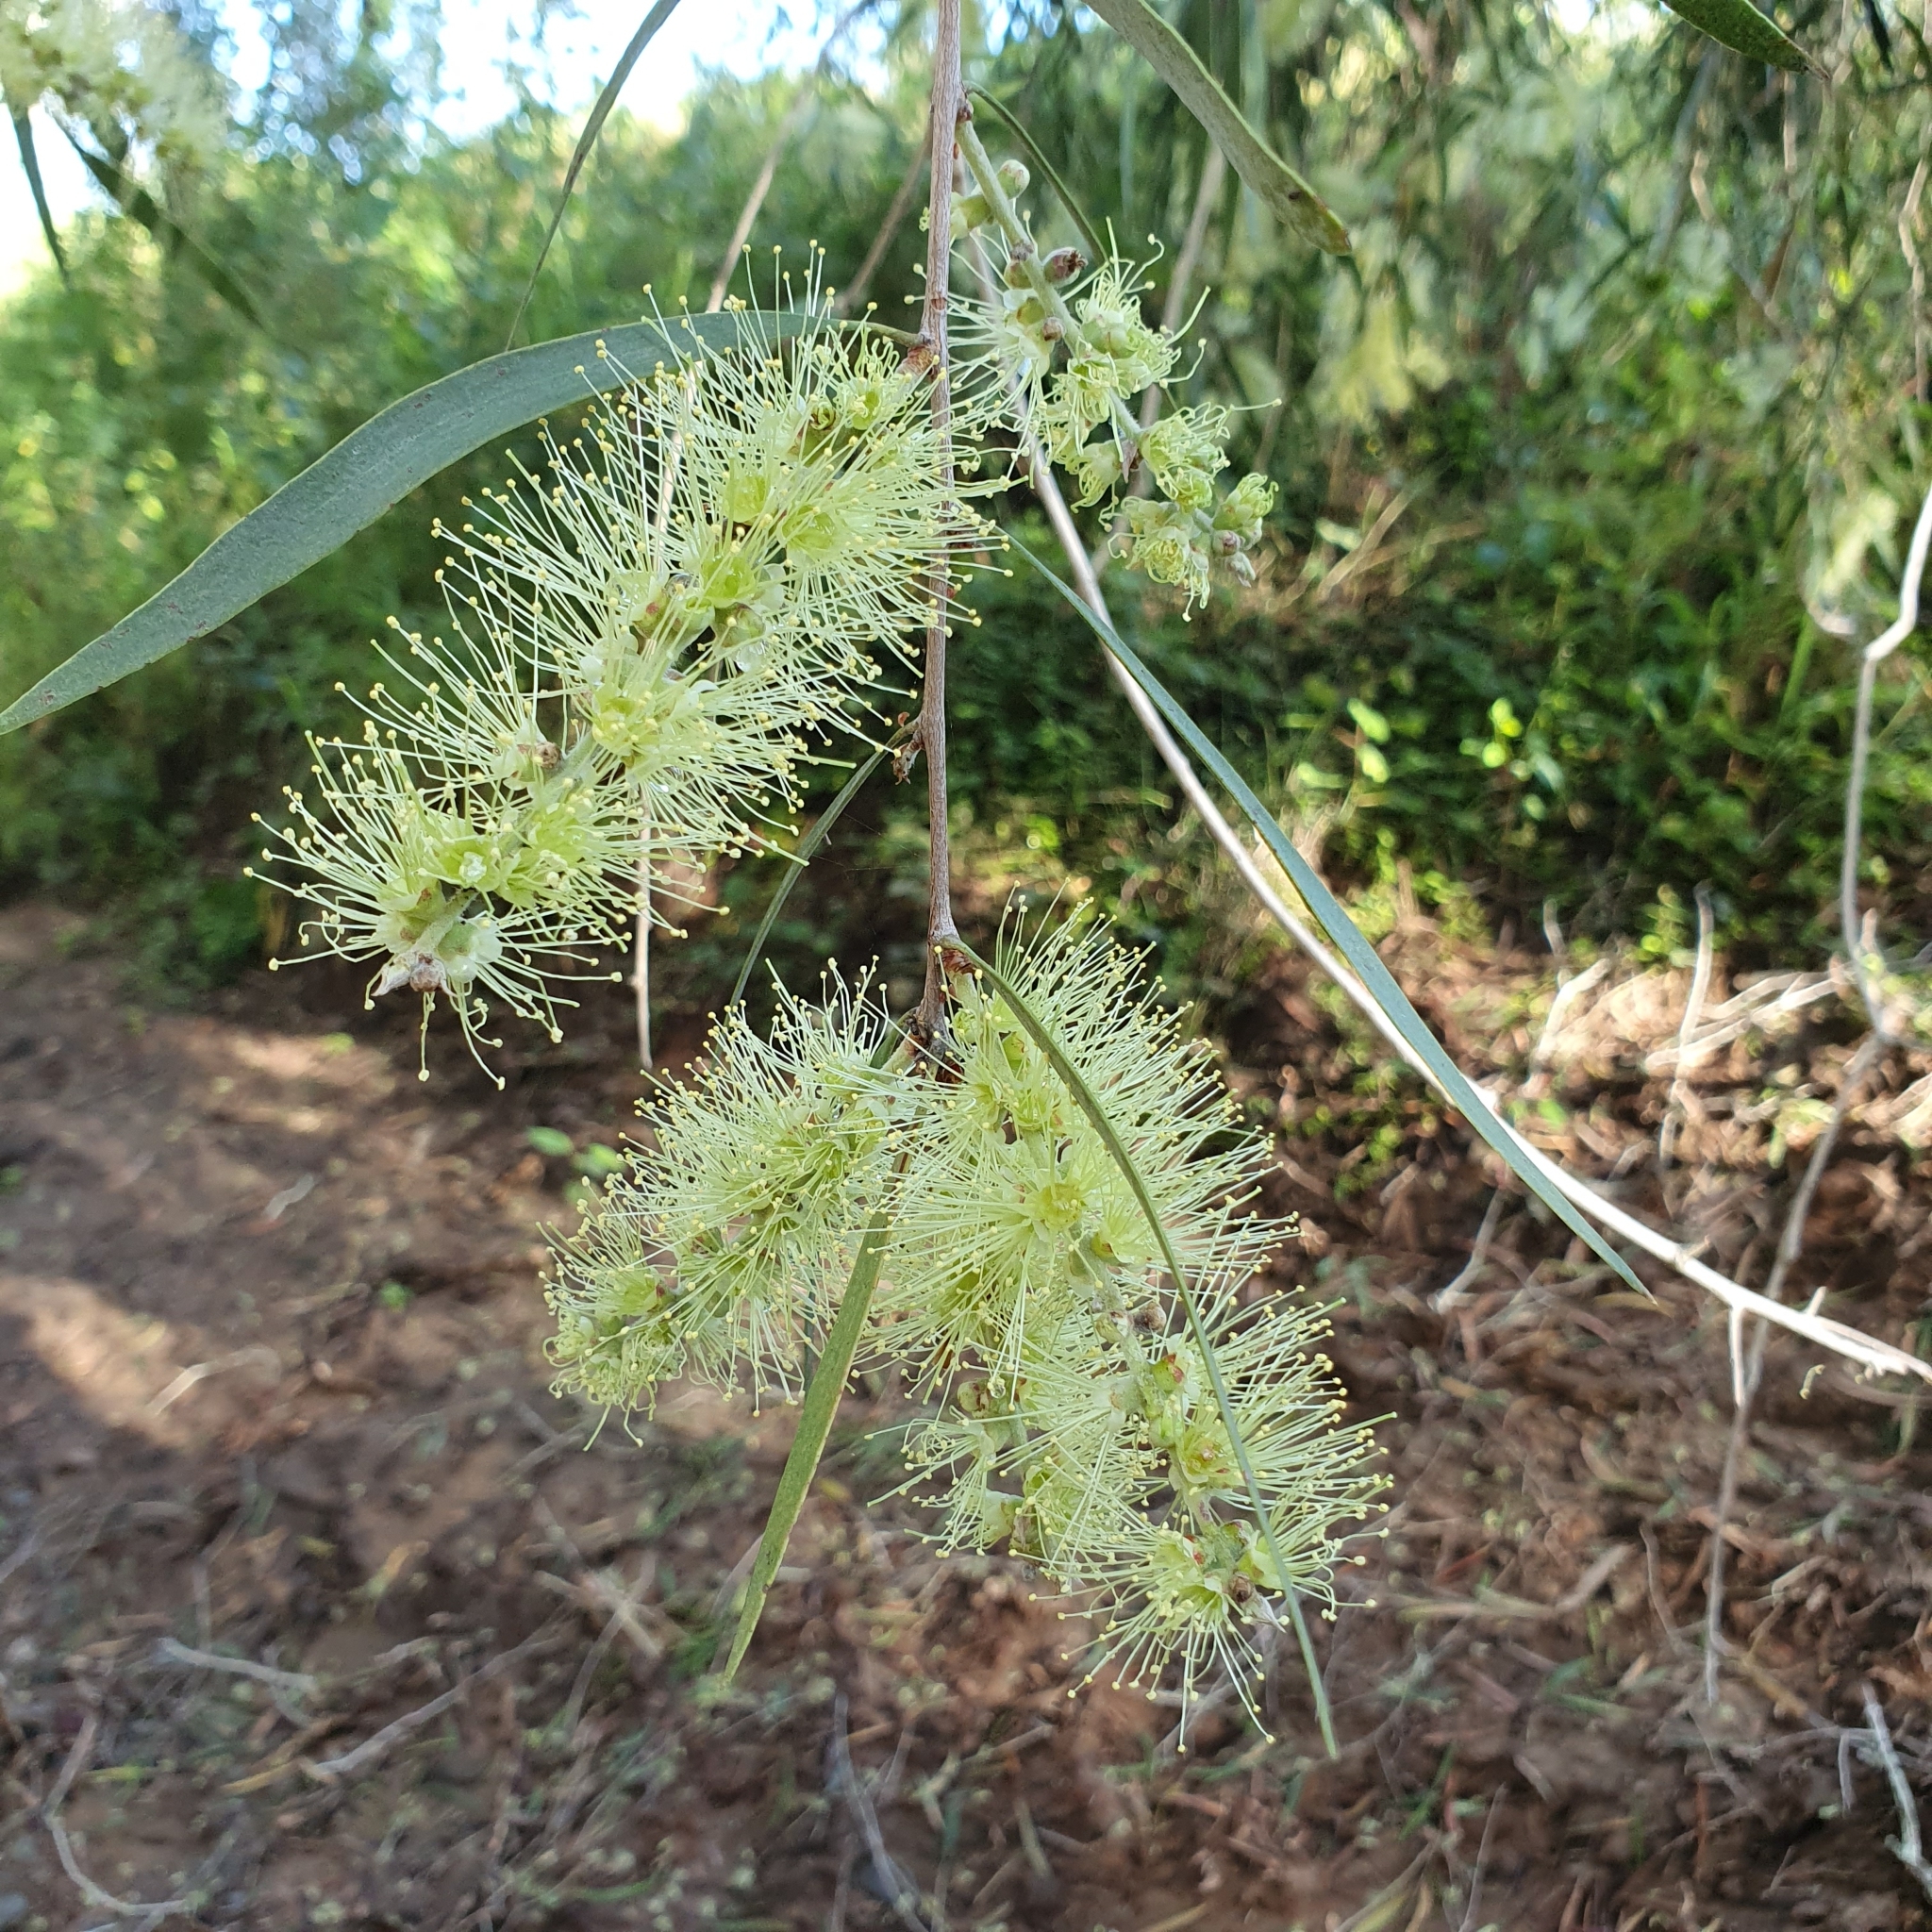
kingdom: Plantae
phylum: Tracheophyta
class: Magnoliopsida
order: Myrtales
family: Myrtaceae
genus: Melaleuca
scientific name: Melaleuca fluviatilis
